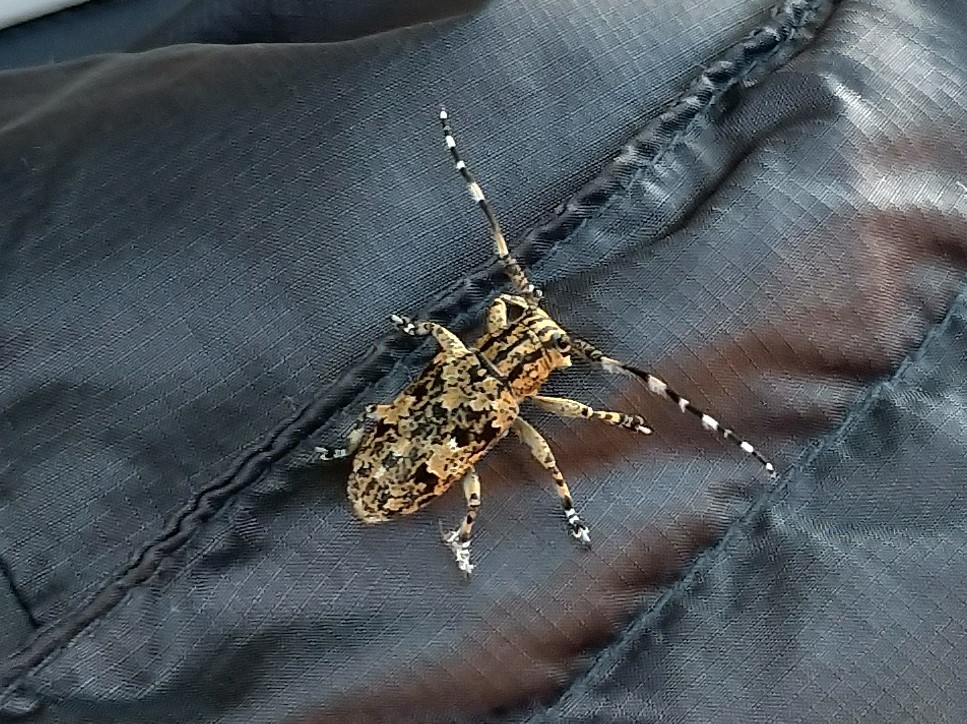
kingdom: Animalia
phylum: Arthropoda
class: Insecta
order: Coleoptera
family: Cerambycidae
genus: Agelasta
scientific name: Agelasta perplexa
